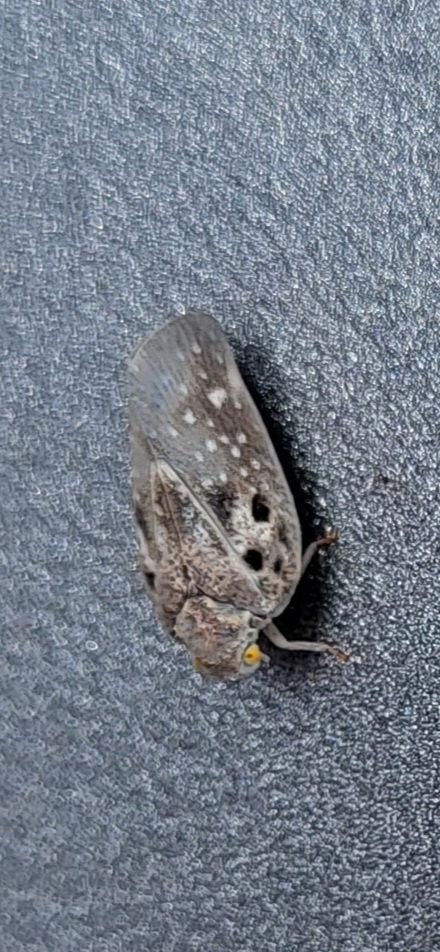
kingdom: Animalia
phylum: Arthropoda
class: Insecta
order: Hemiptera
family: Flatidae
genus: Metcalfa
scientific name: Metcalfa pruinosa
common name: Citrus flatid planthopper
